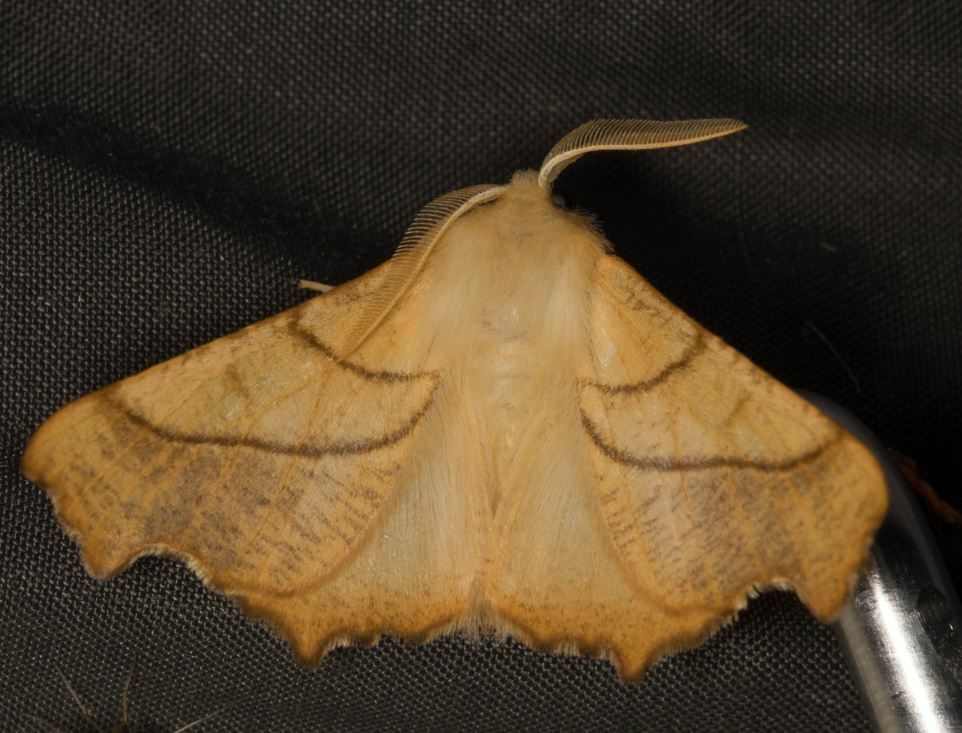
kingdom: Animalia
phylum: Arthropoda
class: Insecta
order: Lepidoptera
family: Geometridae
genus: Ennomos
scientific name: Ennomos fuscantaria
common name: Dusky thorn
